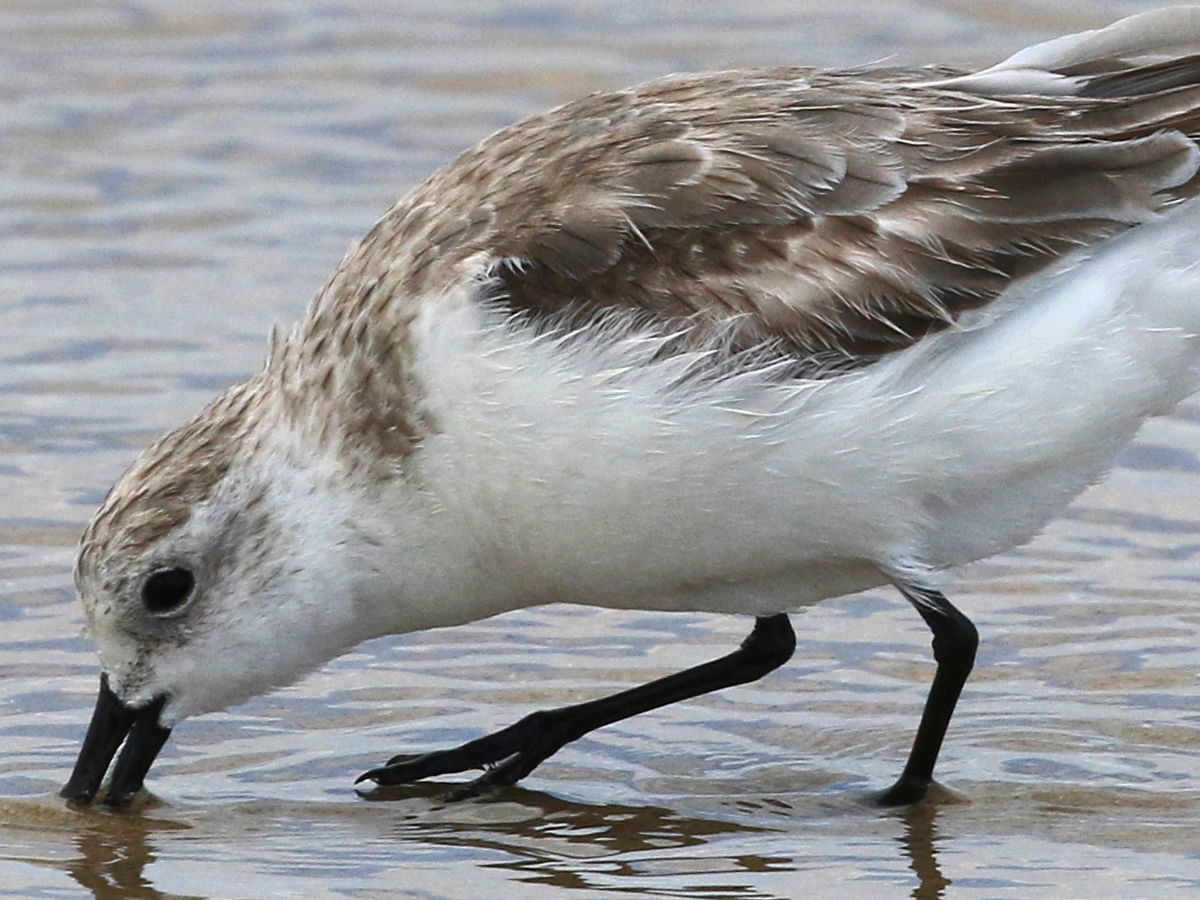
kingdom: Animalia
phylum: Chordata
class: Aves
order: Charadriiformes
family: Scolopacidae
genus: Calidris
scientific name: Calidris alba
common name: Sanderling
